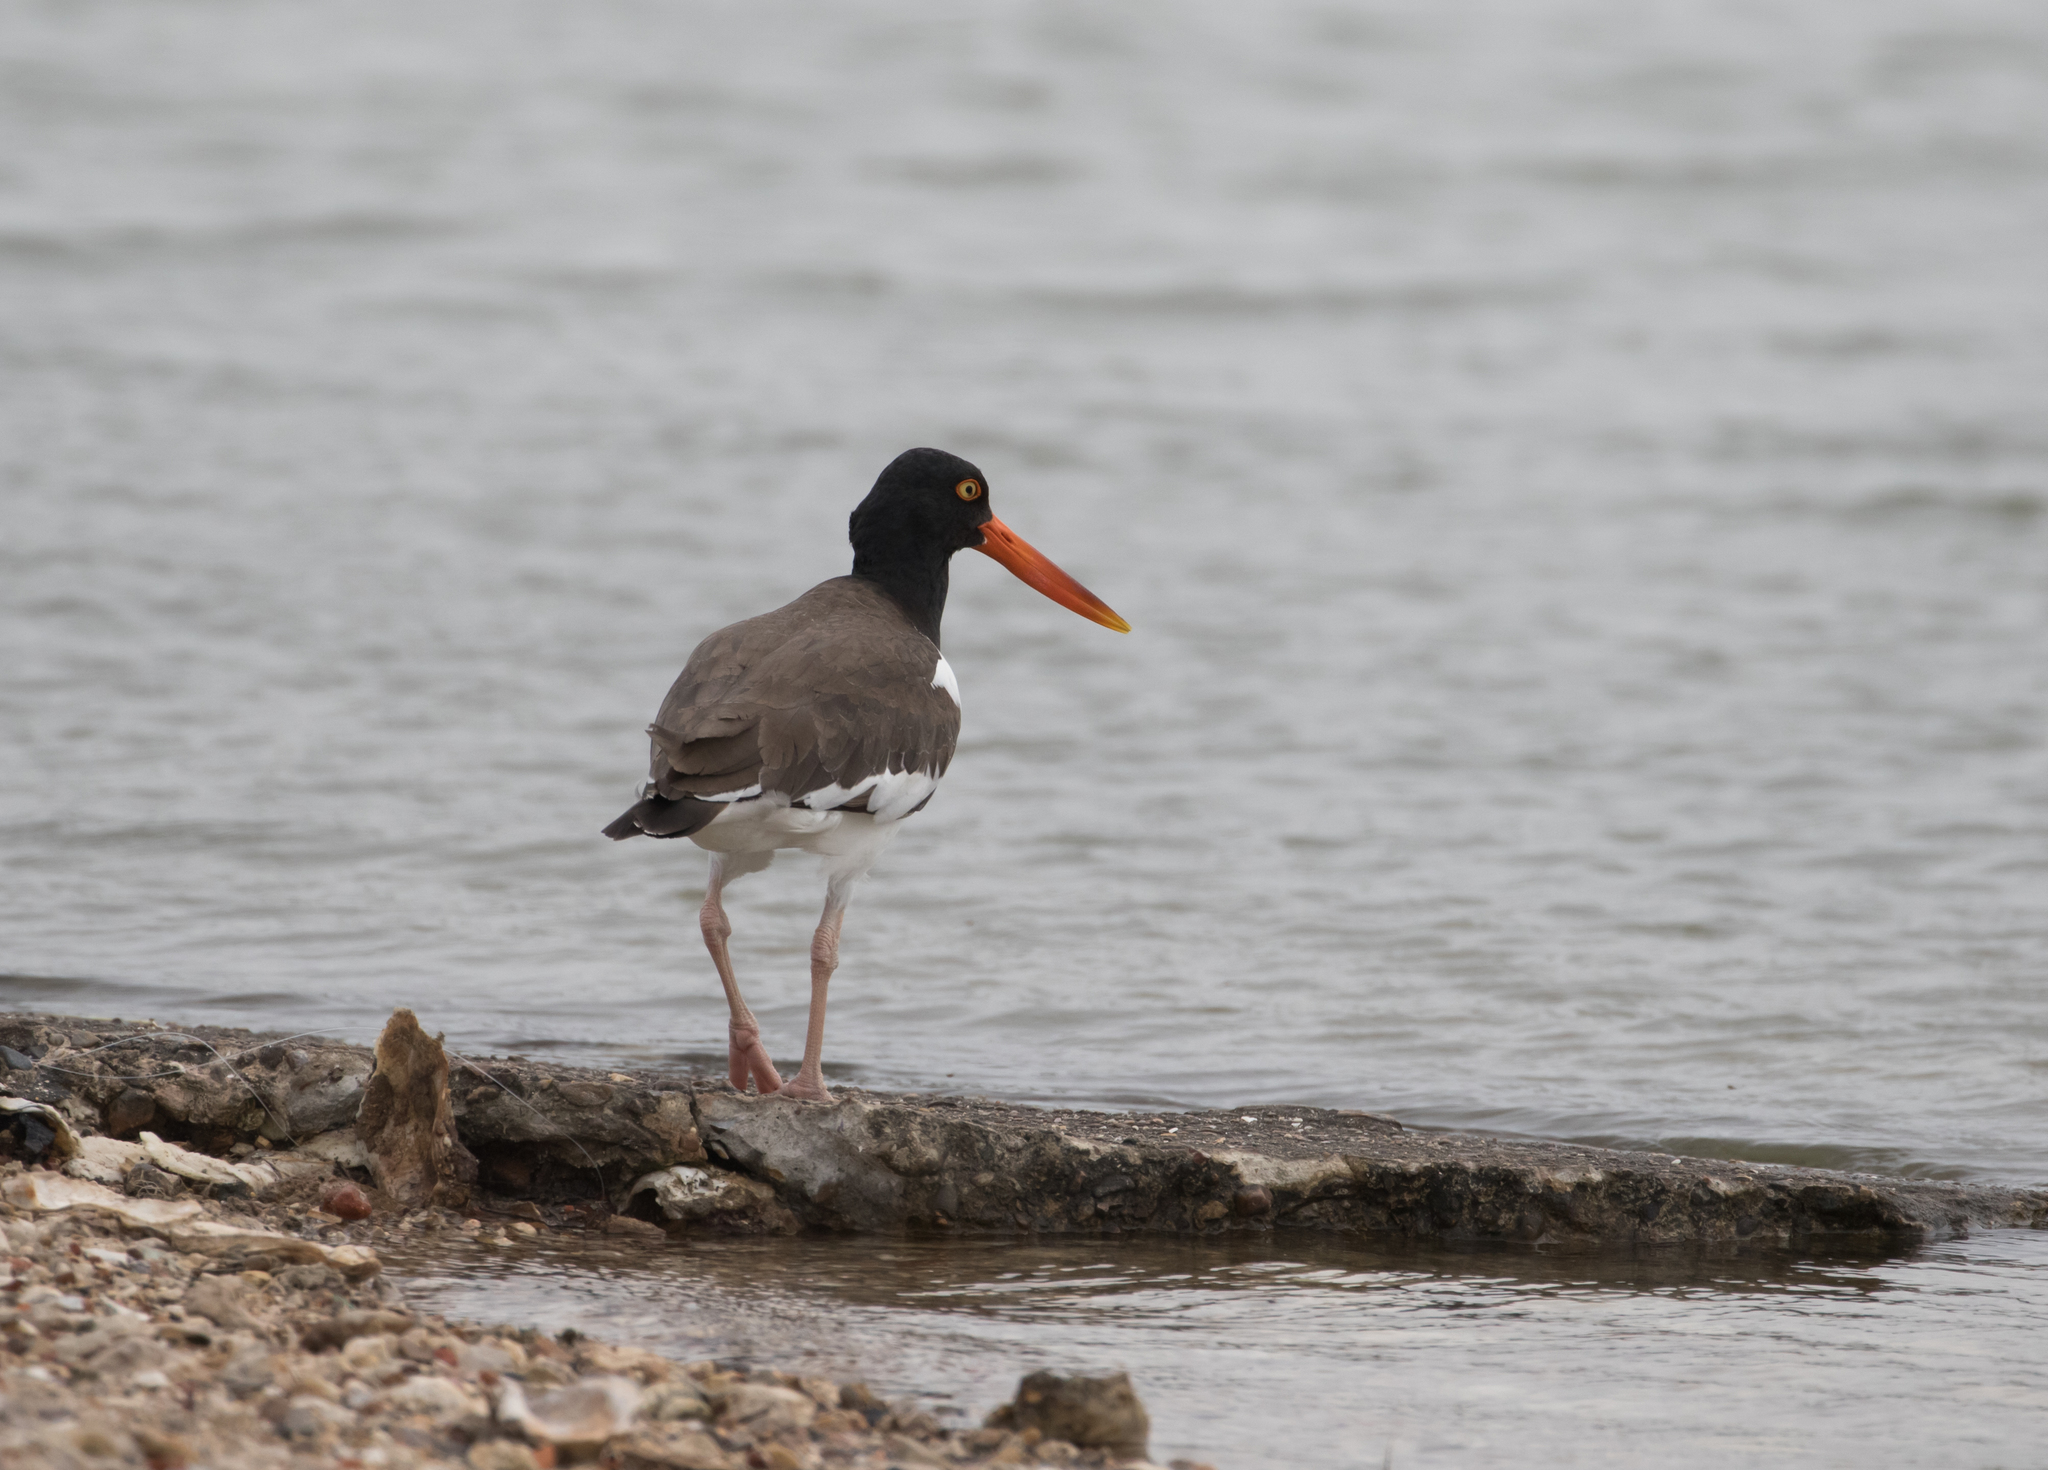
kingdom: Animalia
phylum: Chordata
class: Aves
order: Charadriiformes
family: Haematopodidae
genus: Haematopus
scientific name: Haematopus palliatus
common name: American oystercatcher
